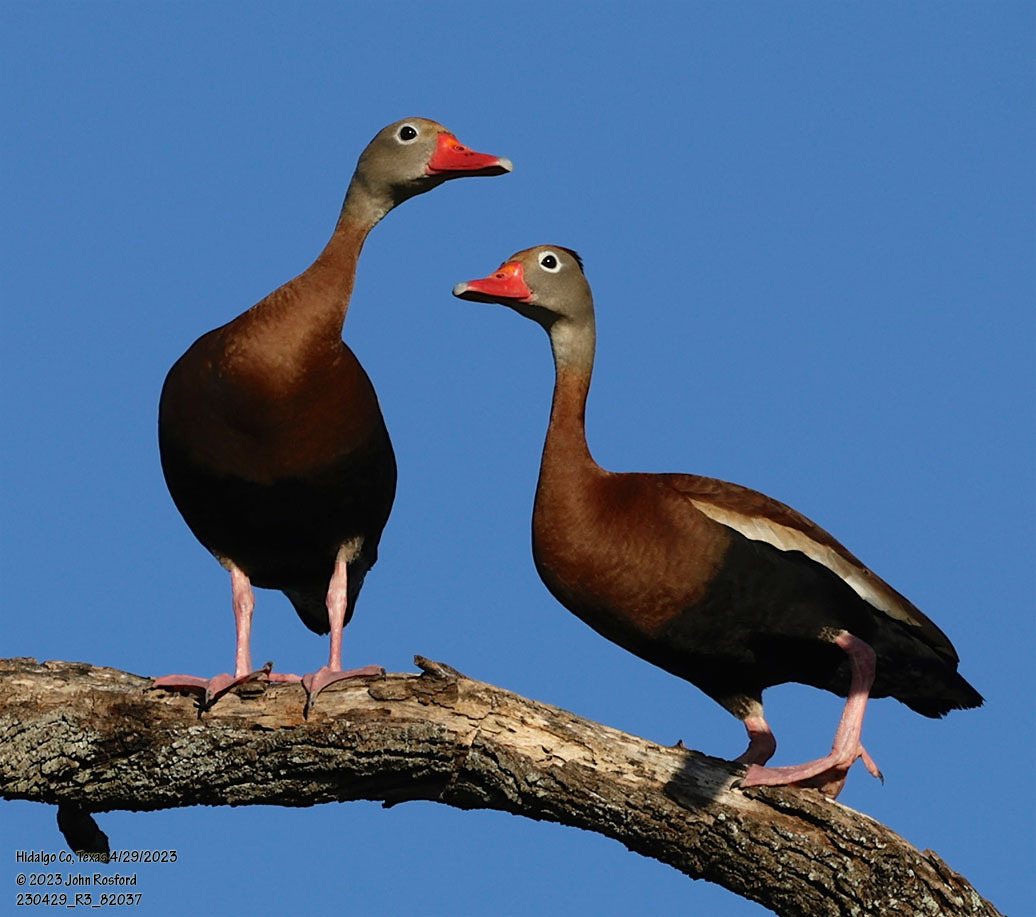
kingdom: Animalia
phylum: Chordata
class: Aves
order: Anseriformes
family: Anatidae
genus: Dendrocygna
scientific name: Dendrocygna autumnalis
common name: Black-bellied whistling duck
